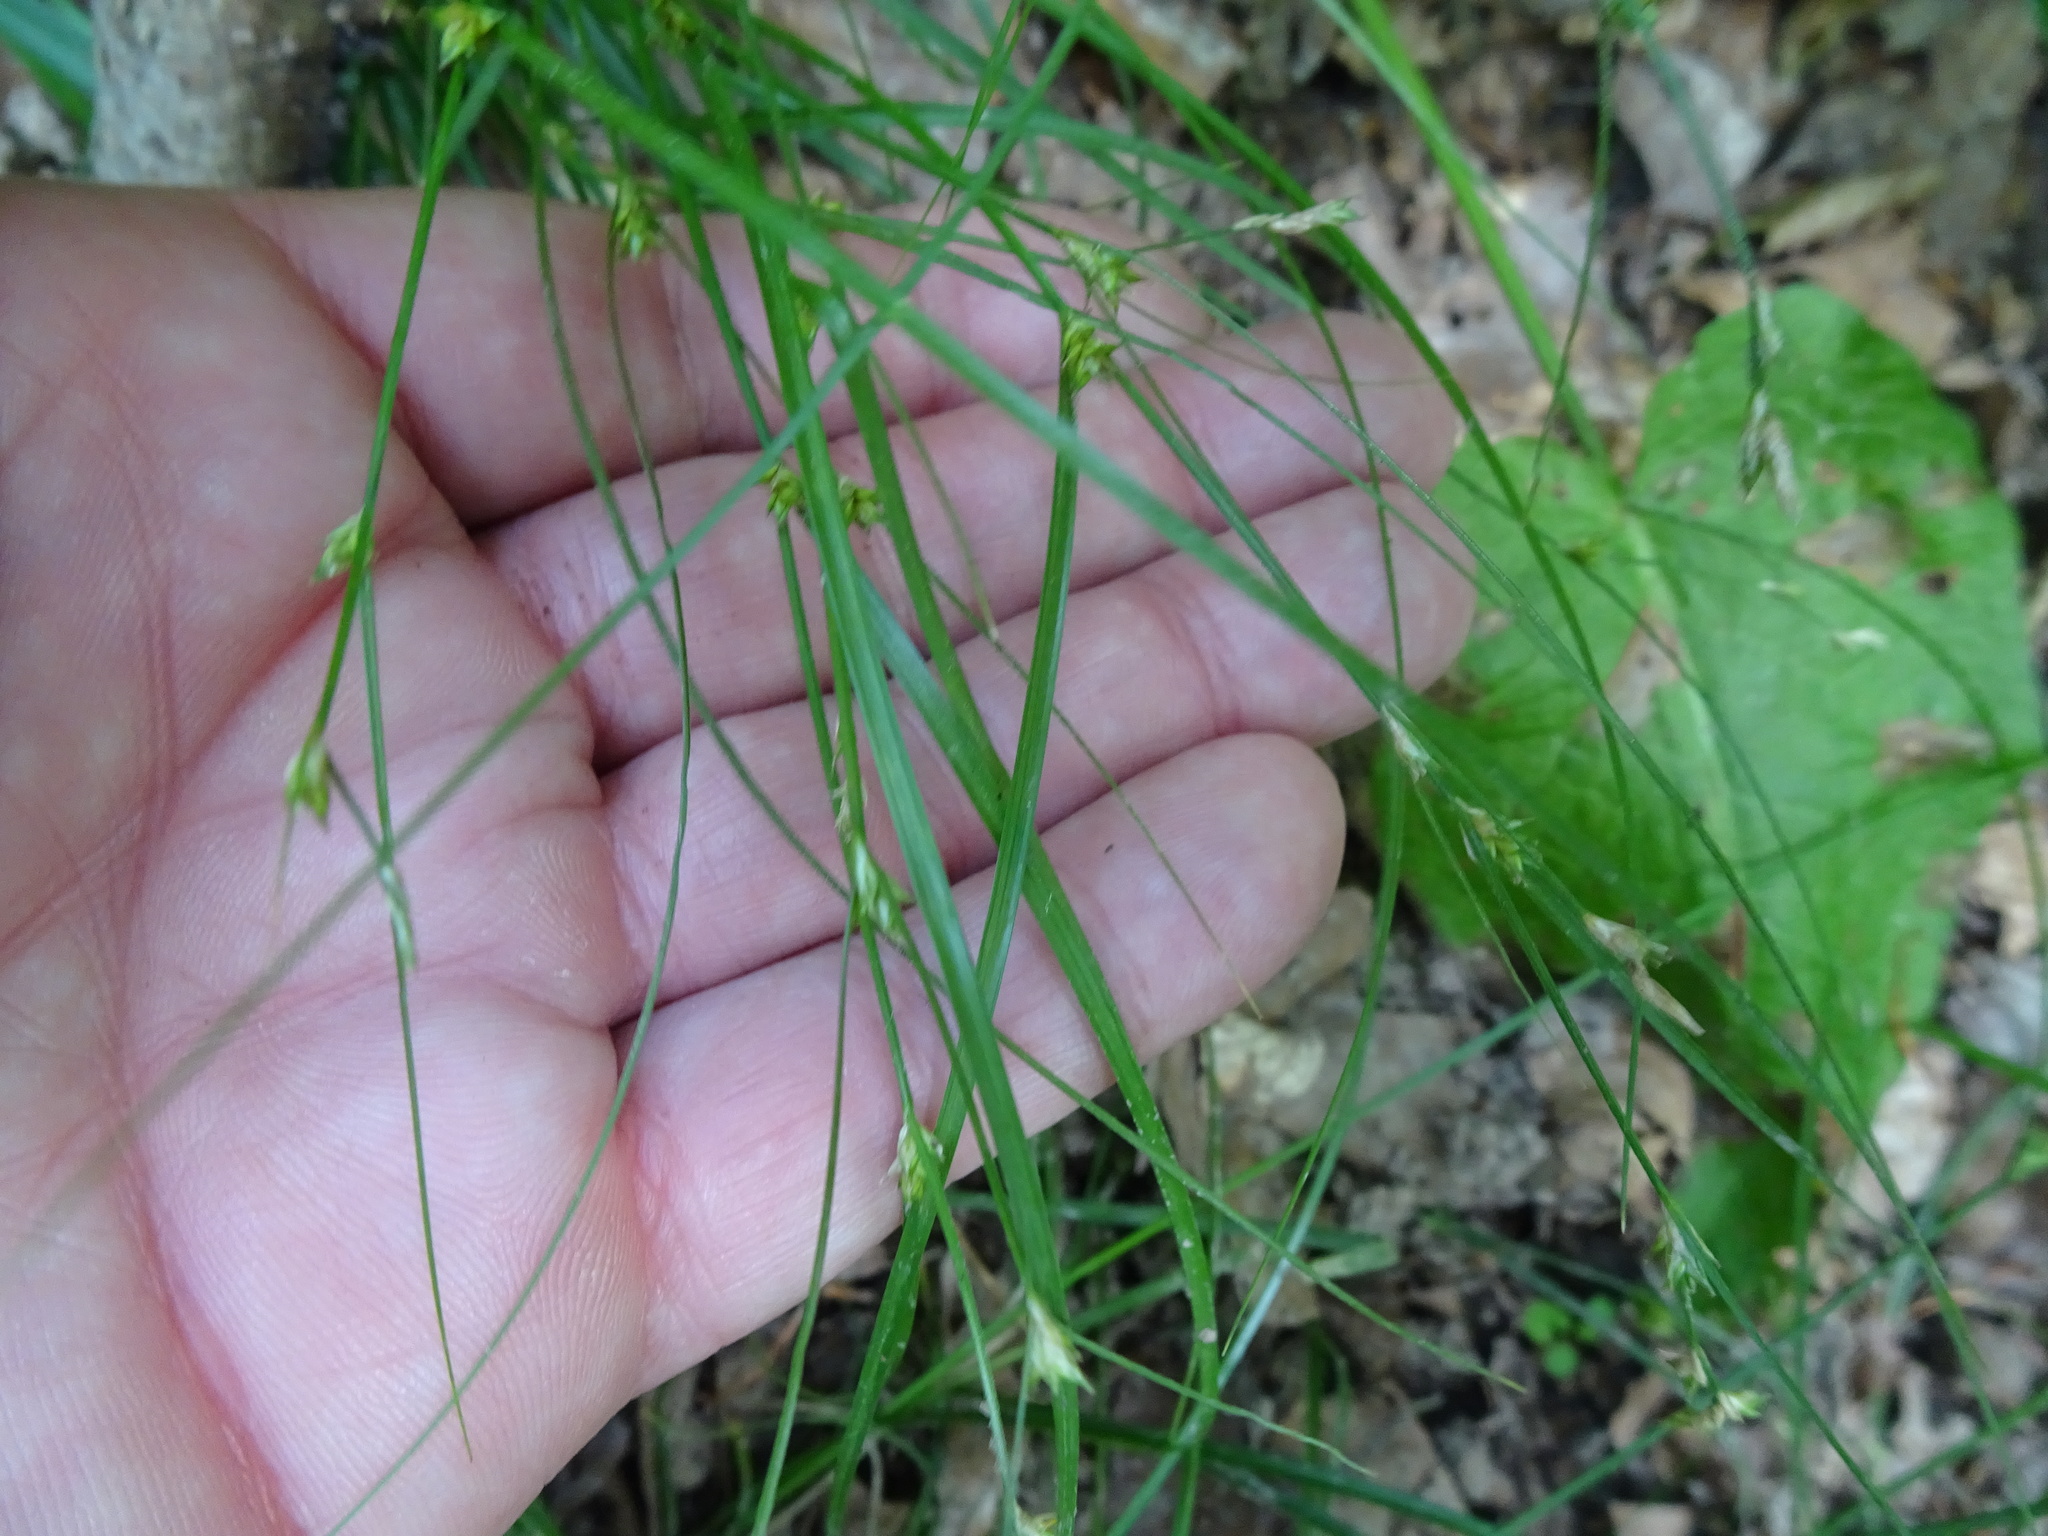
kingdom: Plantae
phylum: Tracheophyta
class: Liliopsida
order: Poales
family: Cyperaceae
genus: Carex
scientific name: Carex remota
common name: Remote sedge
